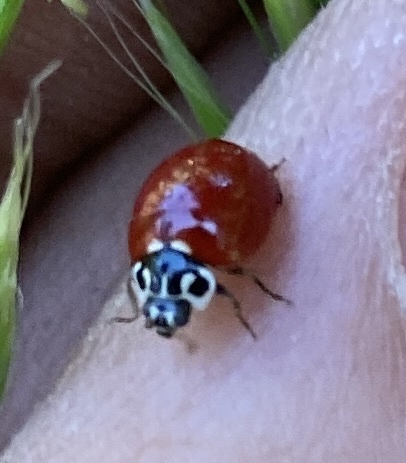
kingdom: Animalia
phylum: Arthropoda
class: Insecta
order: Coleoptera
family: Coccinellidae
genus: Cycloneda
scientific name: Cycloneda polita
